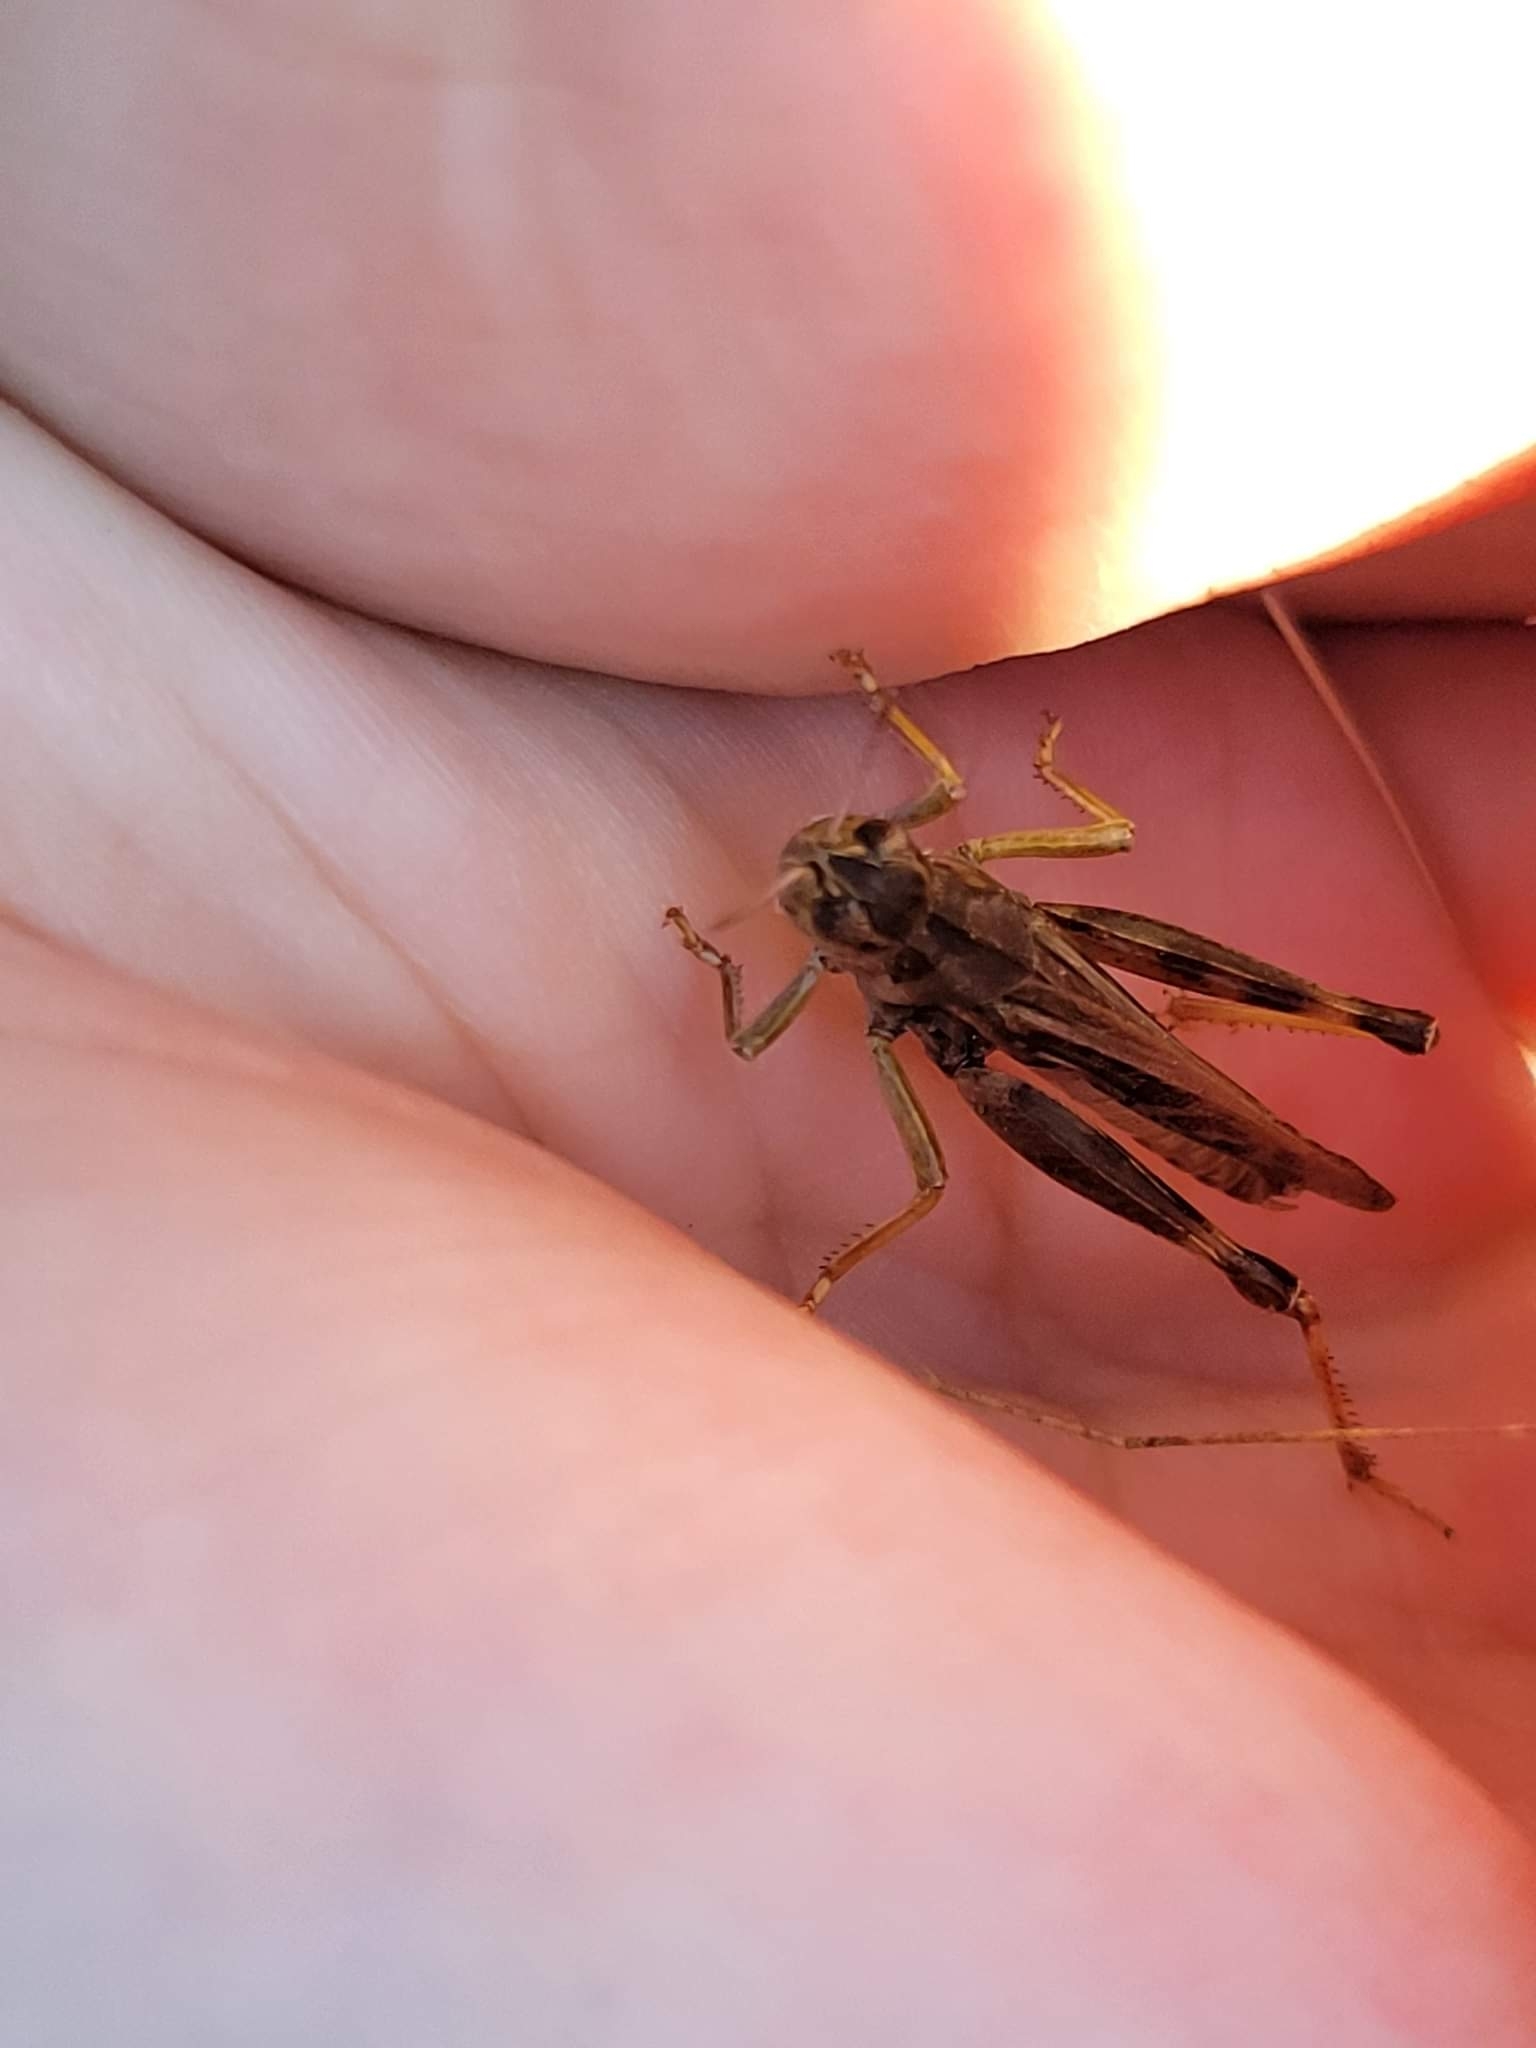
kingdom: Animalia
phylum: Arthropoda
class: Insecta
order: Orthoptera
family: Acrididae
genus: Camnula
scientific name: Camnula pellucida
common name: Clear-winged grasshopper
